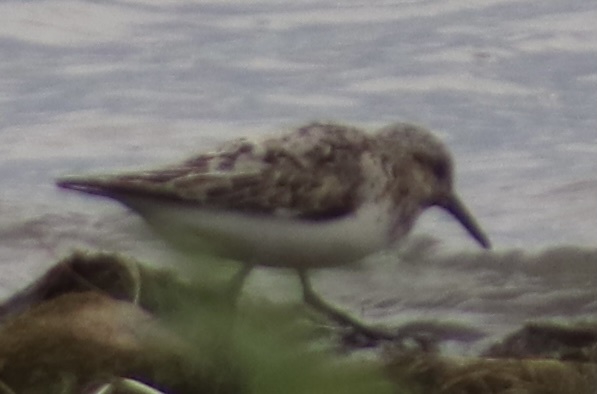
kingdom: Animalia
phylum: Chordata
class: Aves
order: Charadriiformes
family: Scolopacidae
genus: Calidris
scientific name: Calidris alba
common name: Sanderling
